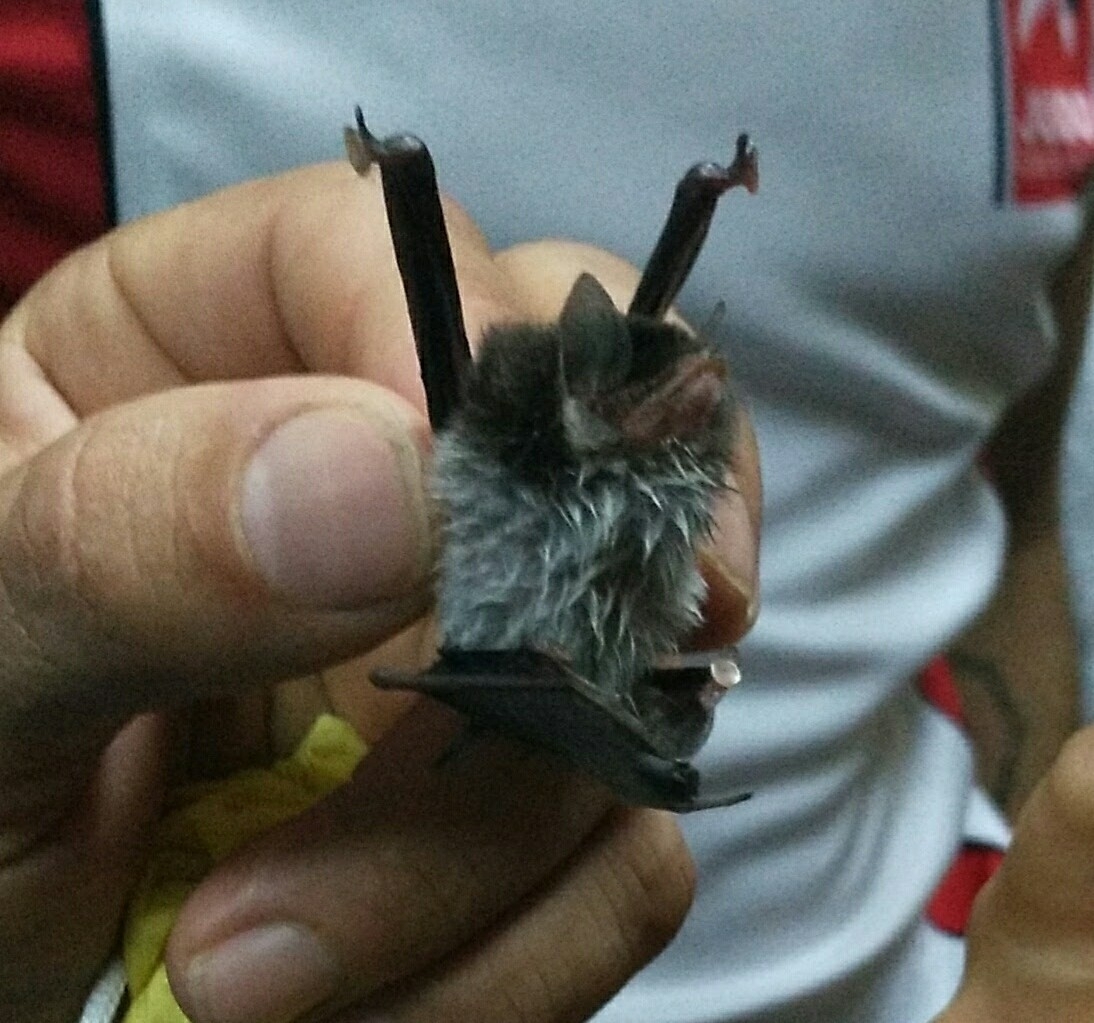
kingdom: Animalia
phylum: Chordata
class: Mammalia
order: Chiroptera
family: Thyropteridae
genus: Thyroptera
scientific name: Thyroptera tricolor
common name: Spix's disk-winged bat
